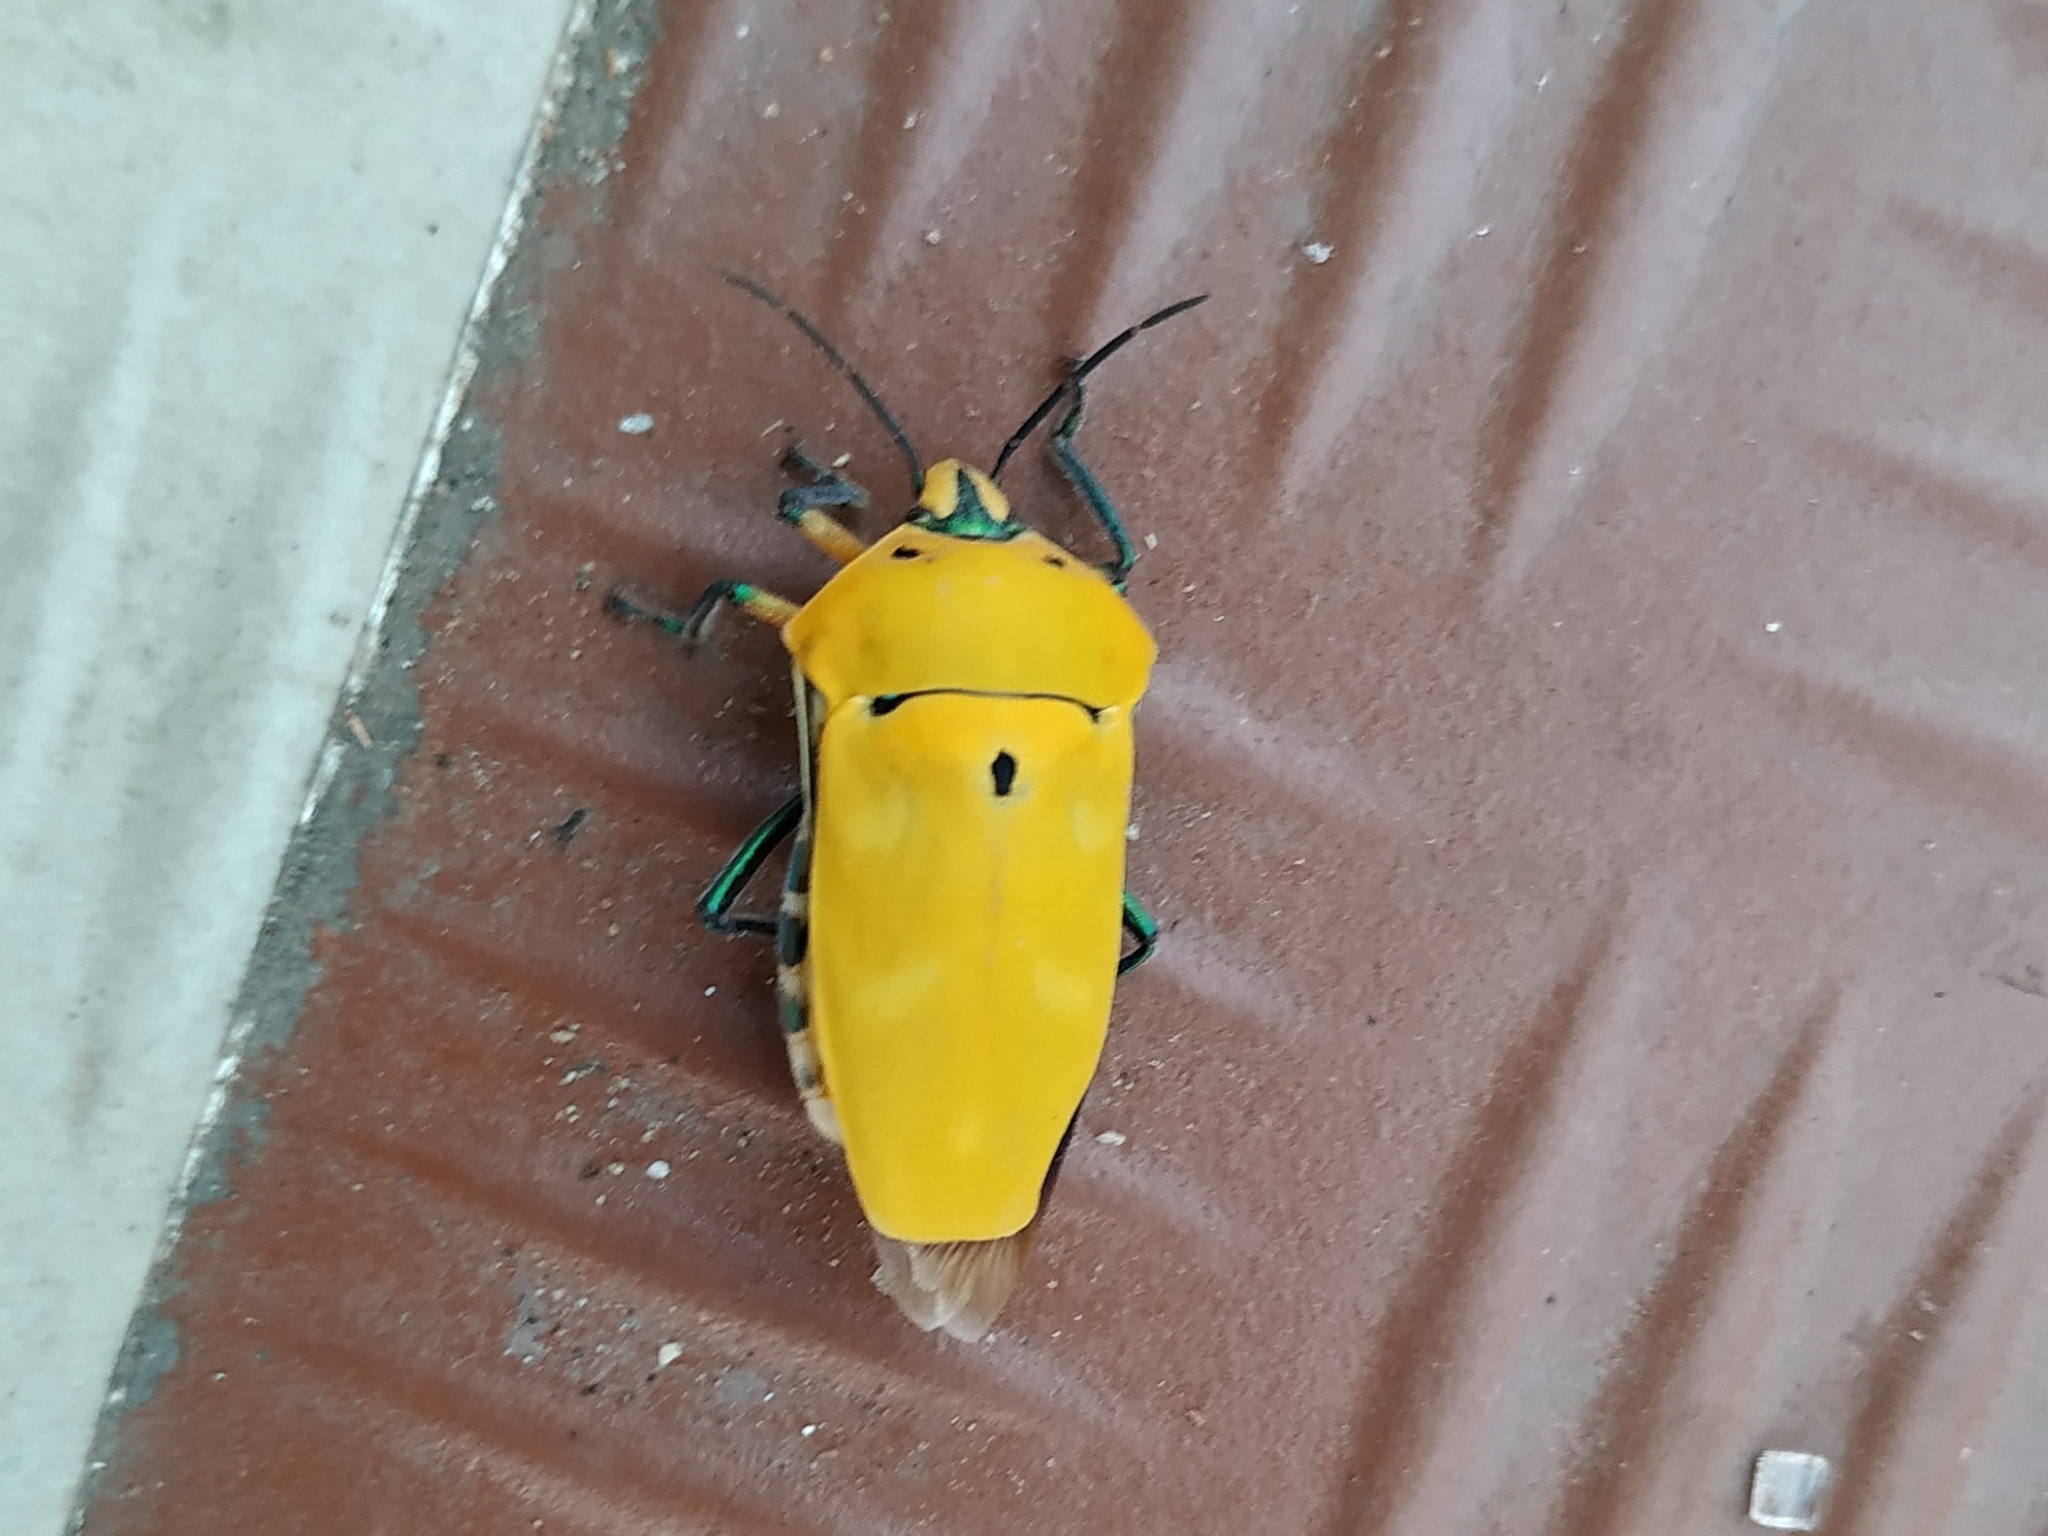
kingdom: Animalia
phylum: Arthropoda
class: Insecta
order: Hemiptera
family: Scutelleridae
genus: Cantao
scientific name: Cantao ocellatus
